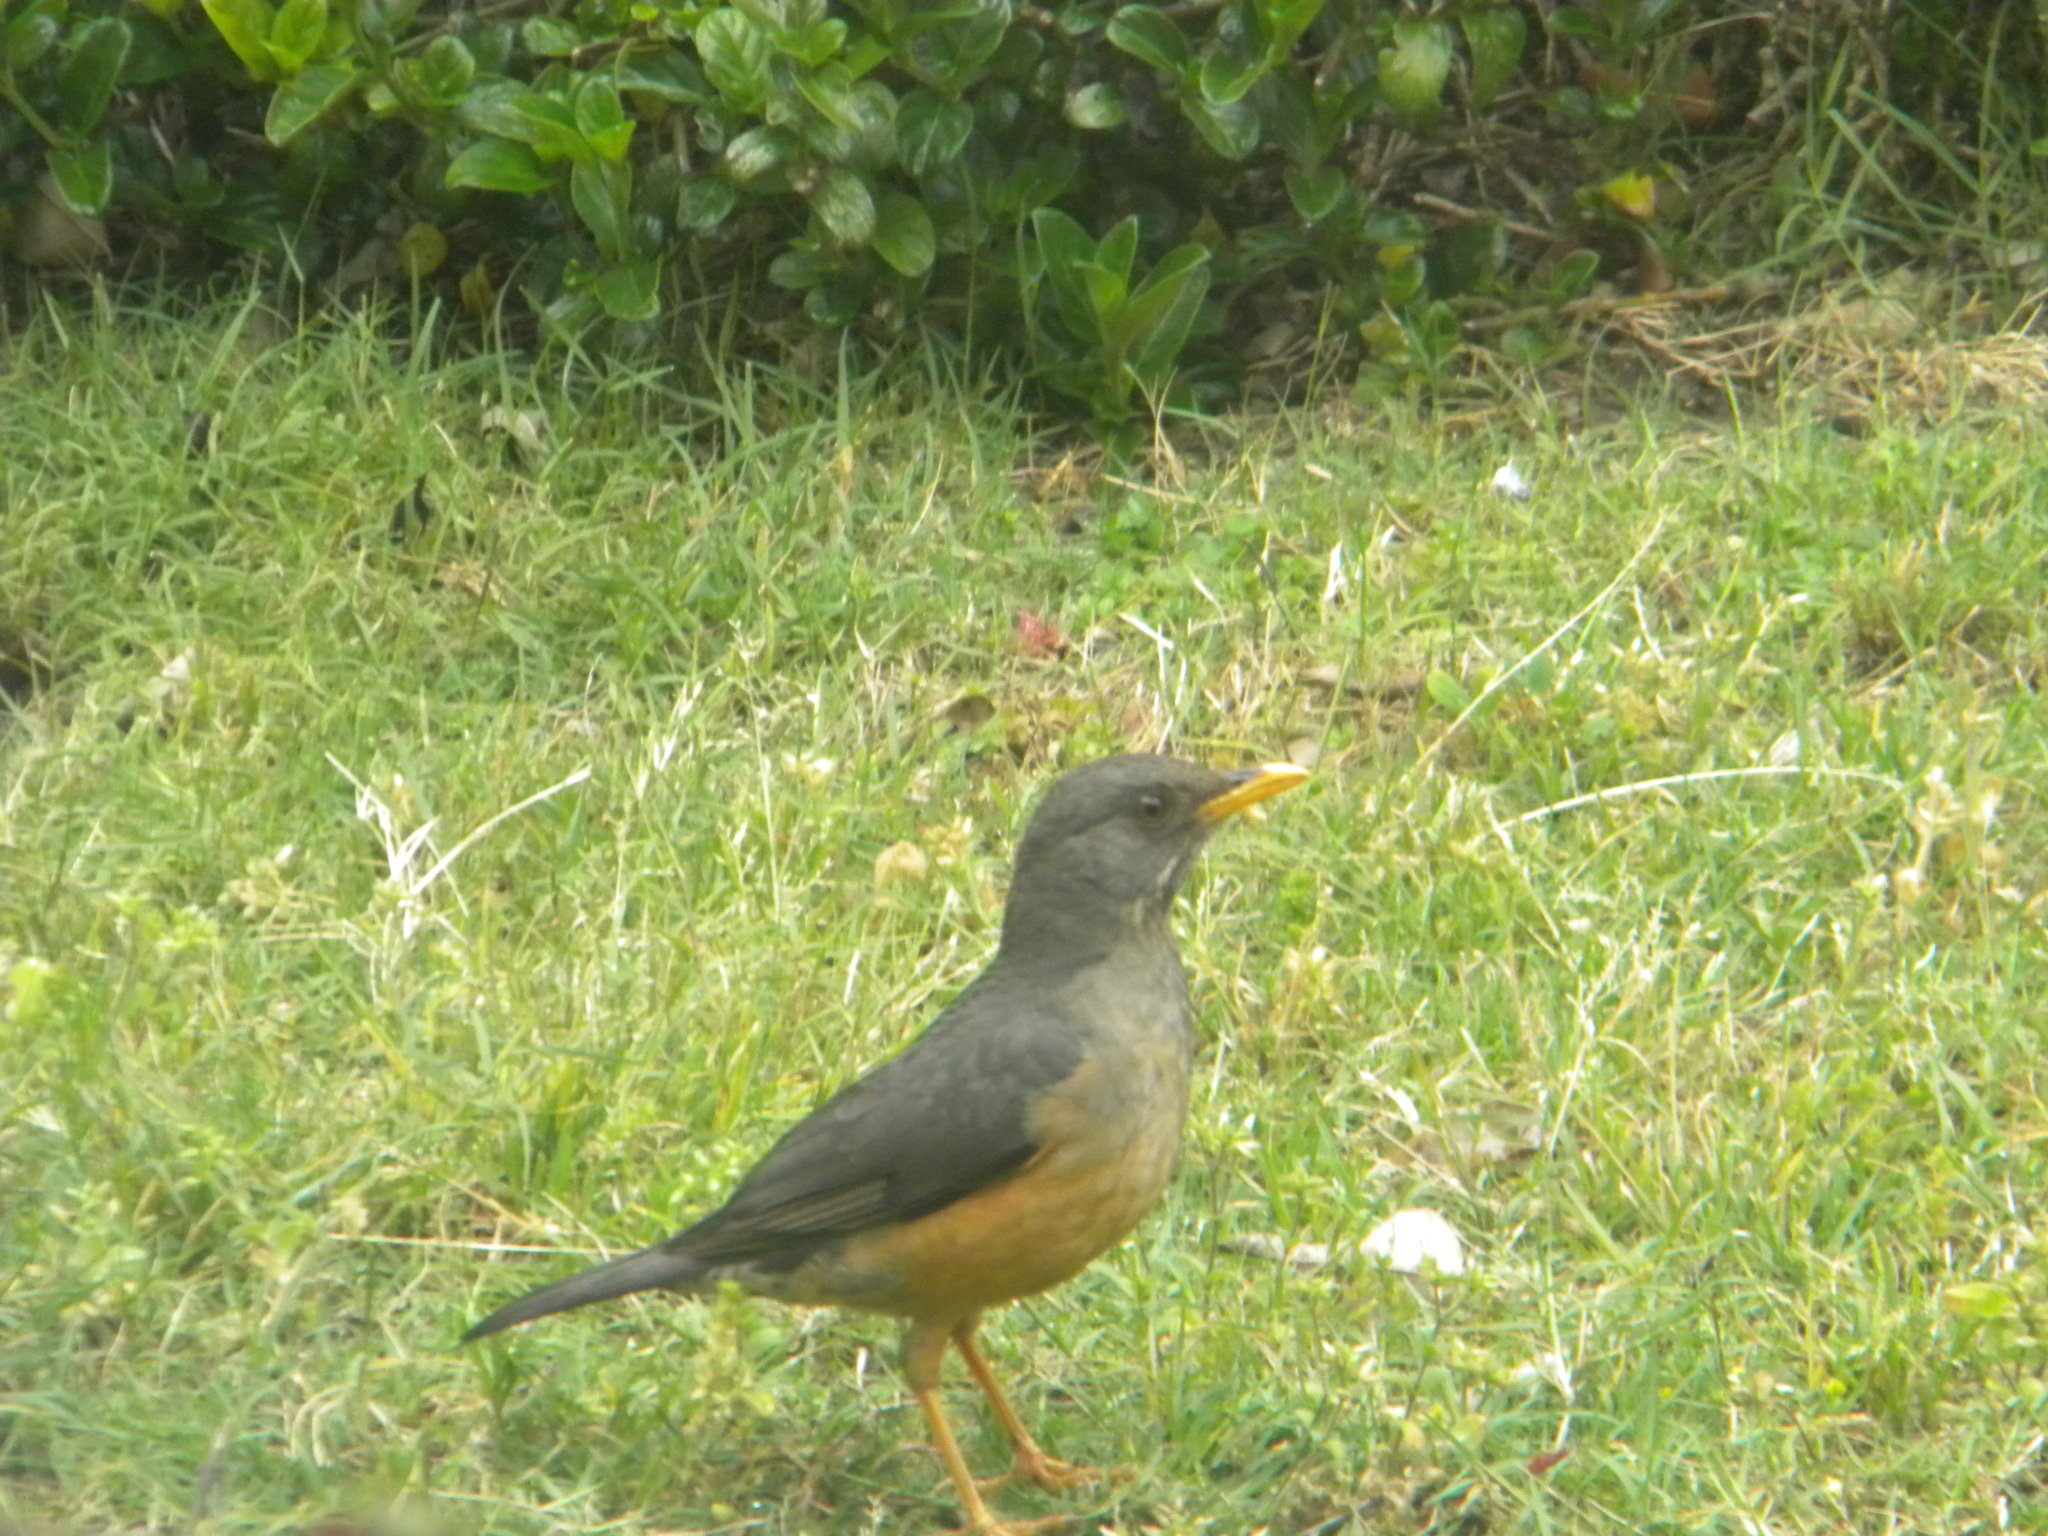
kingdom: Animalia
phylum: Chordata
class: Aves
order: Passeriformes
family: Turdidae
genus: Turdus
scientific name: Turdus olivaceus
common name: Olive thrush
